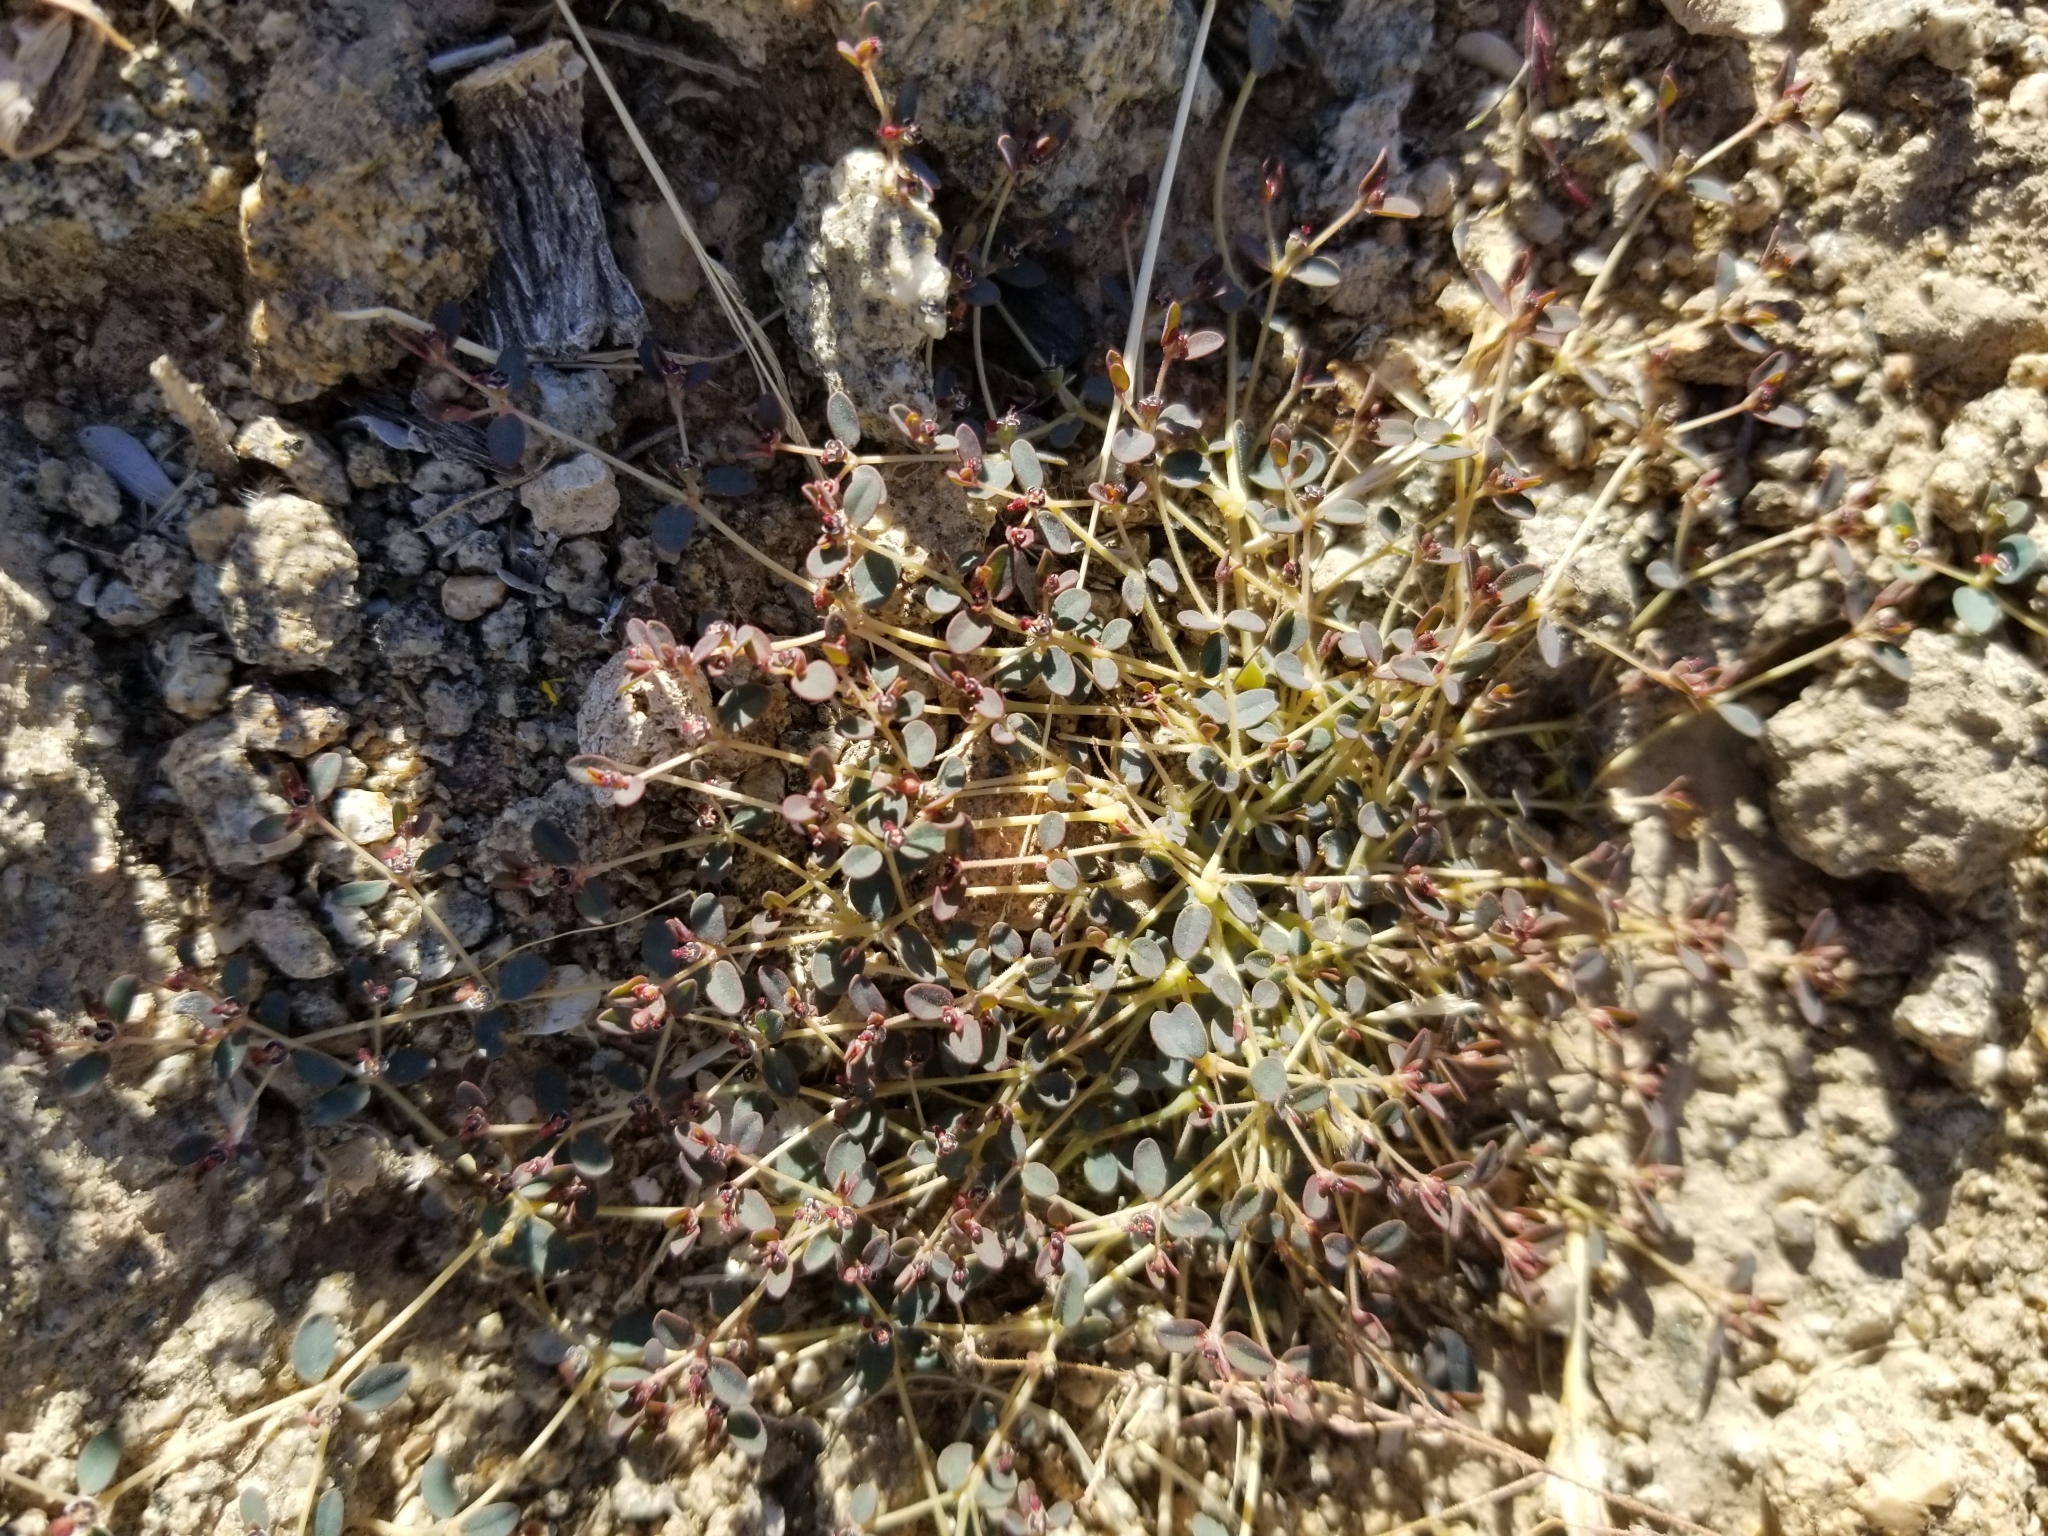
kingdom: Plantae
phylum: Tracheophyta
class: Magnoliopsida
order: Malpighiales
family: Euphorbiaceae
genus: Euphorbia
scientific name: Euphorbia polycarpa
